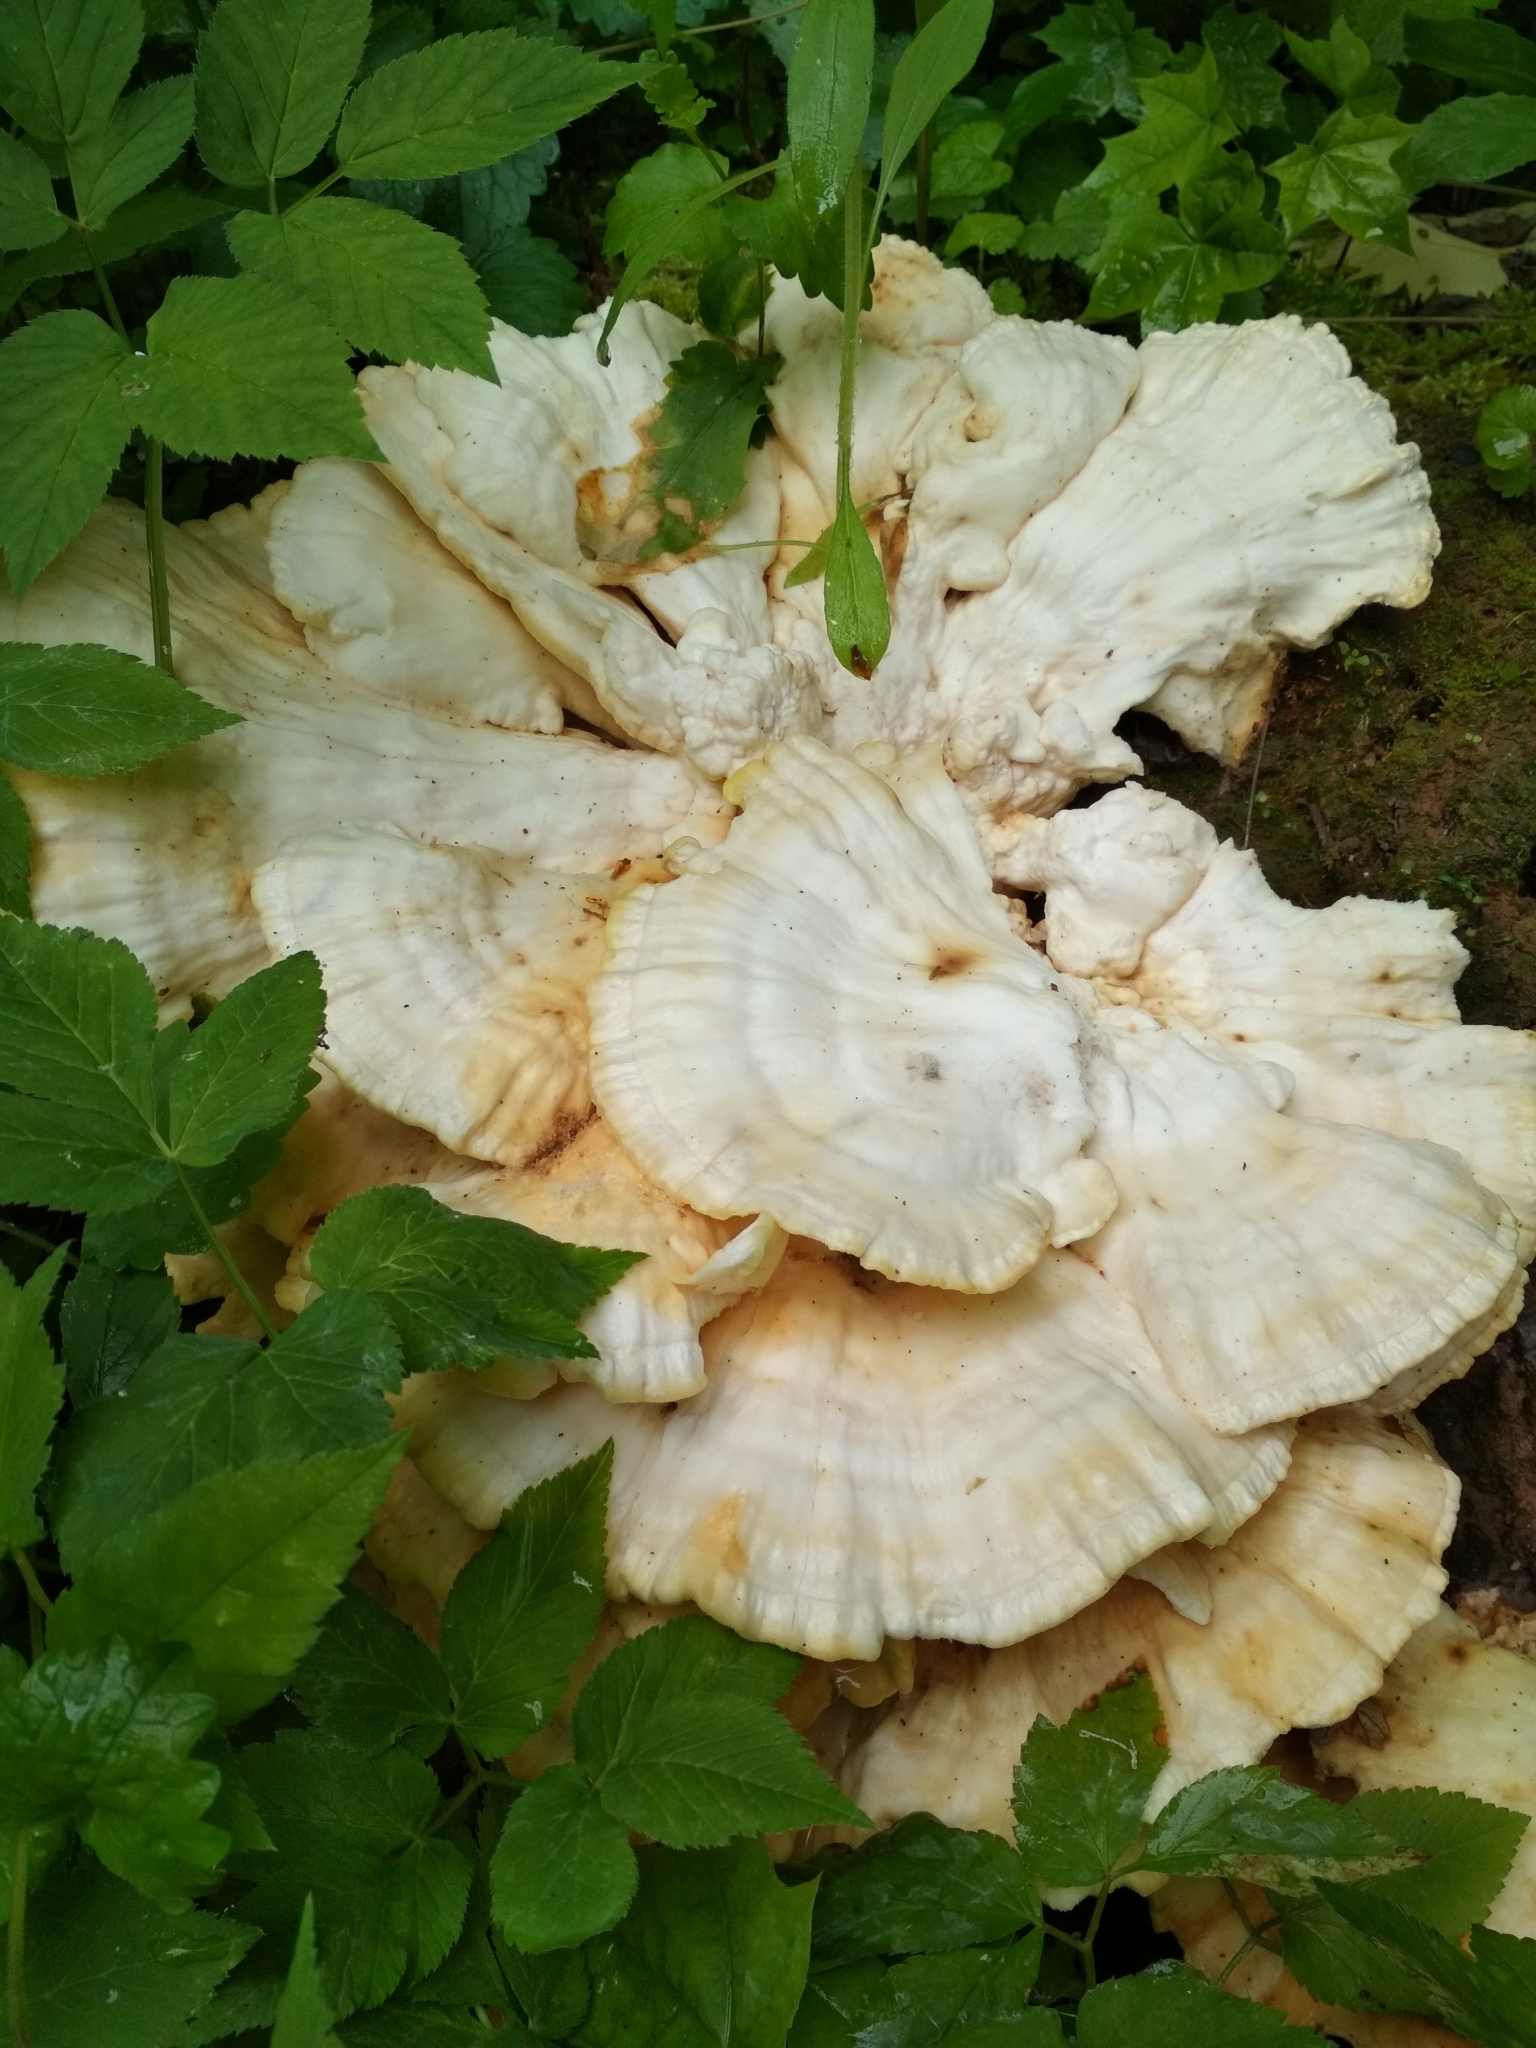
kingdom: Fungi
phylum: Basidiomycota
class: Agaricomycetes
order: Polyporales
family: Laetiporaceae
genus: Laetiporus
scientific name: Laetiporus sulphureus
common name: Chicken of the woods
